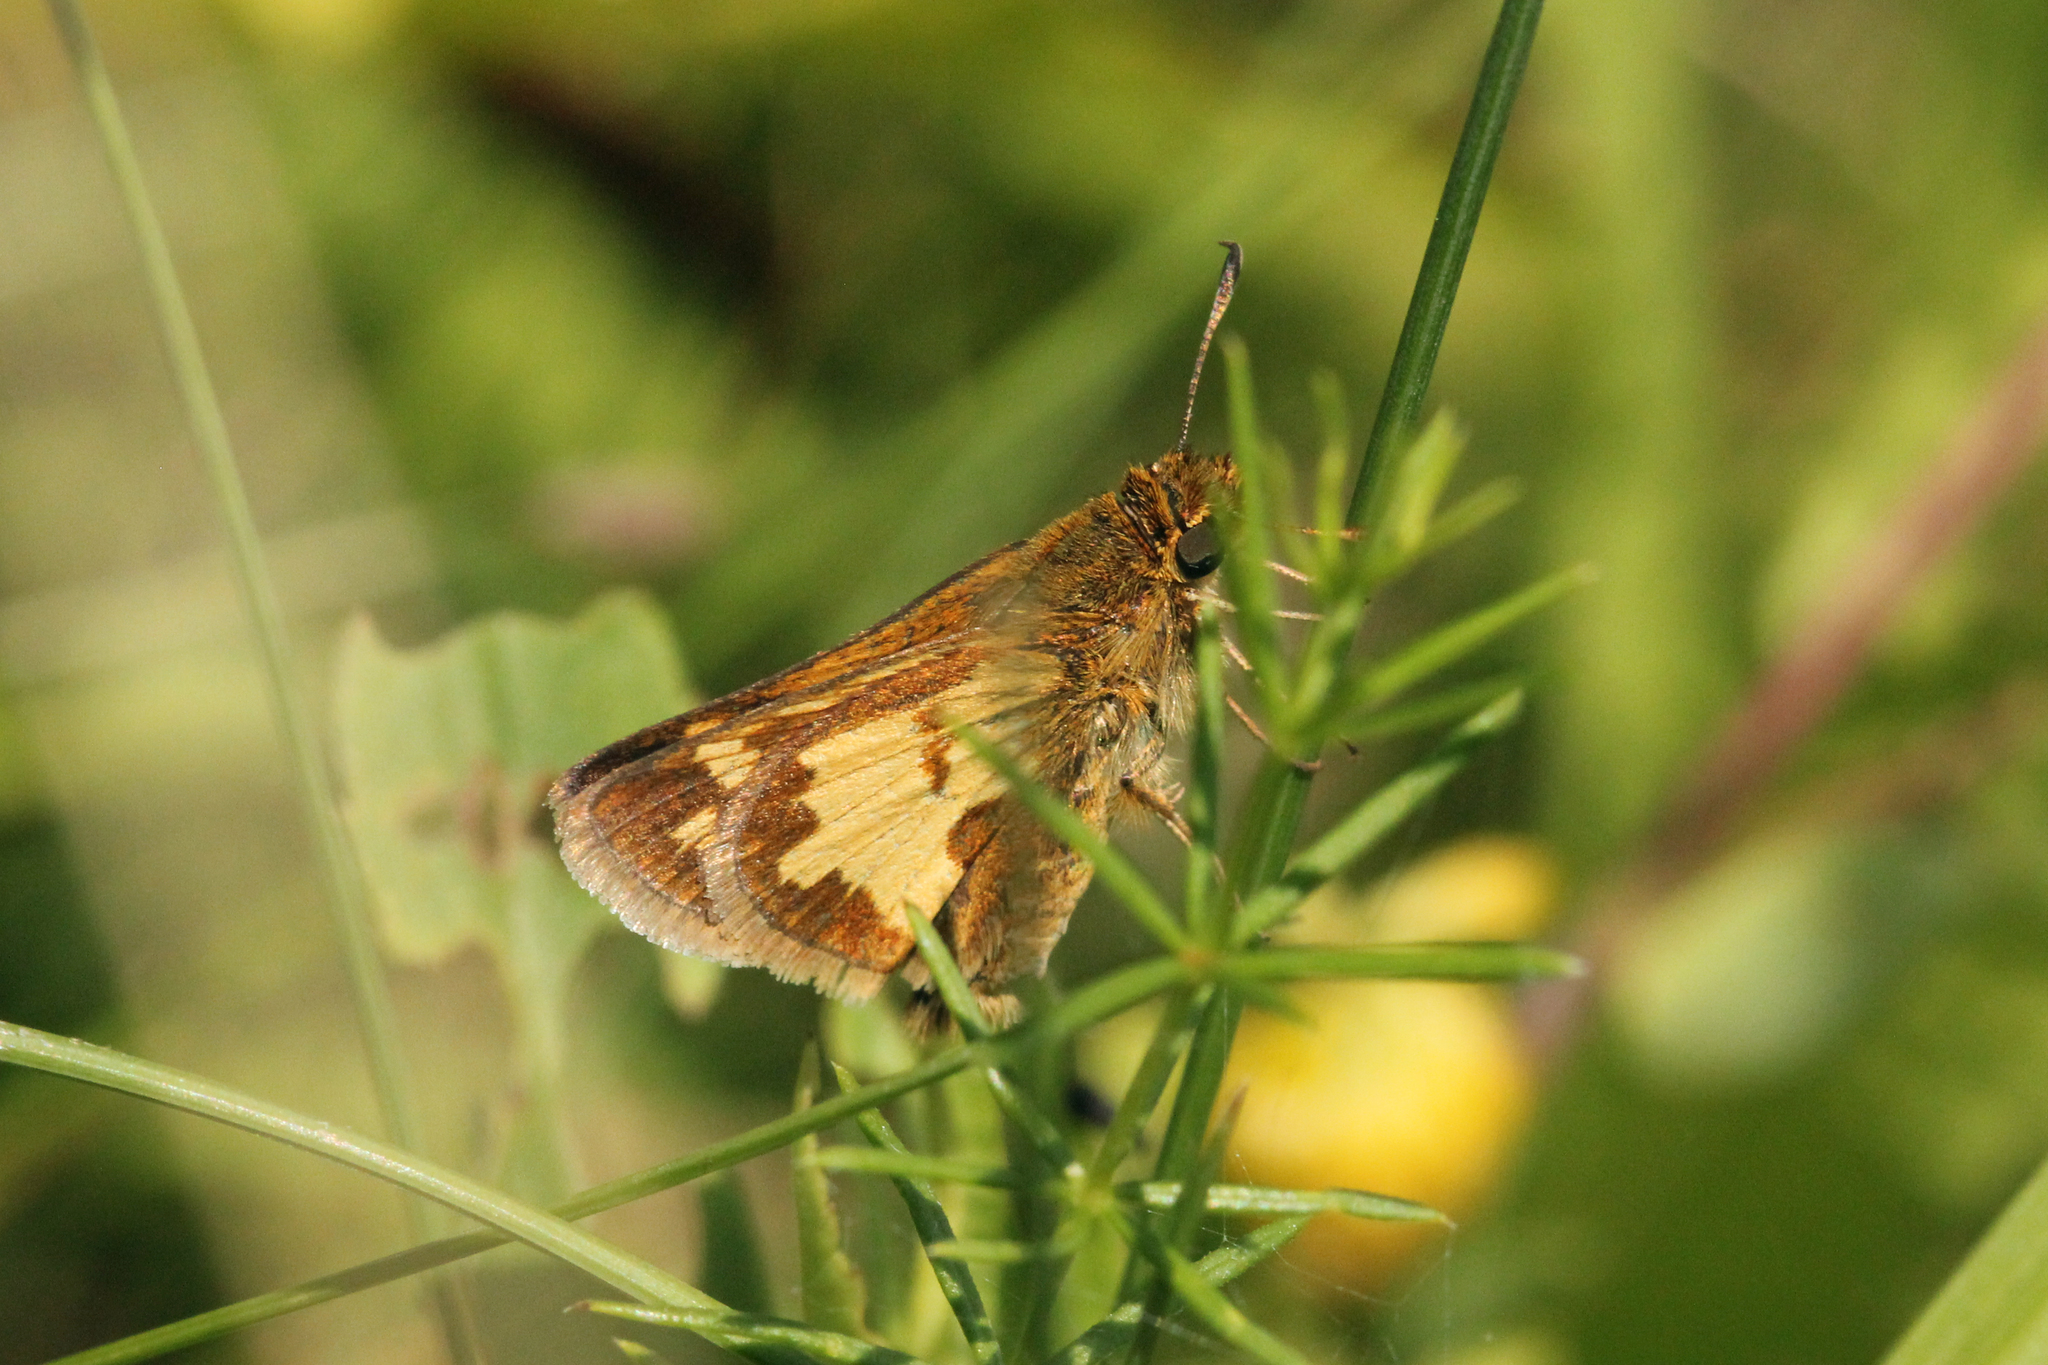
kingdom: Animalia
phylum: Arthropoda
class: Insecta
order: Lepidoptera
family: Hesperiidae
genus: Polites
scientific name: Polites coras
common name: Peck's skipper
